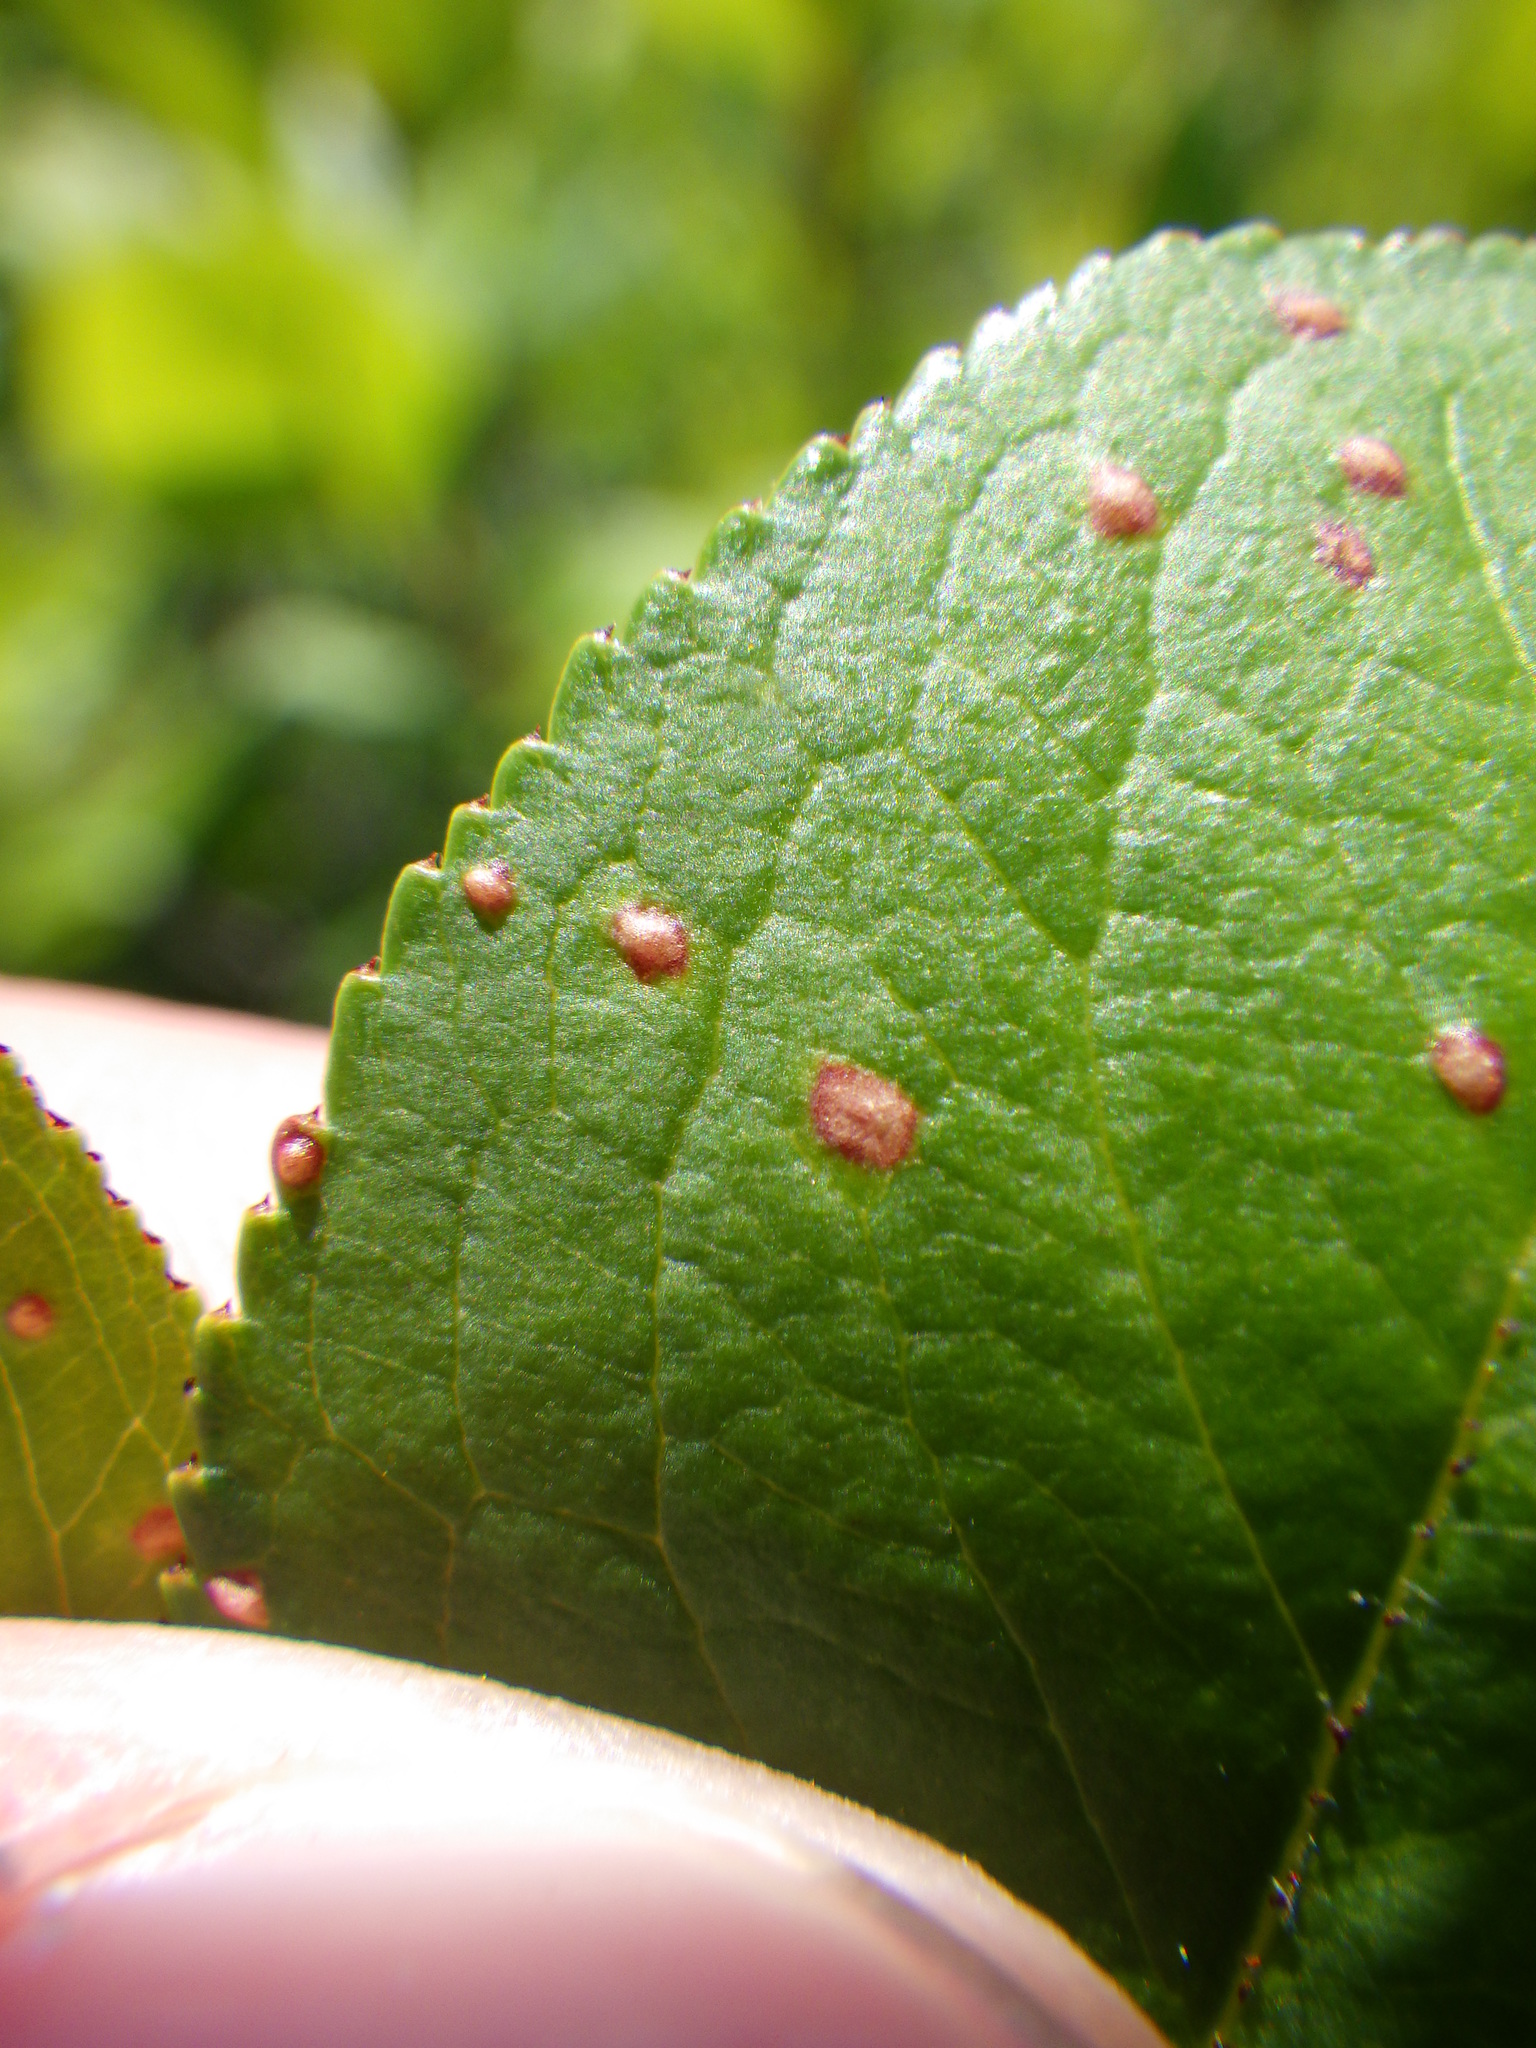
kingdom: Plantae
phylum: Tracheophyta
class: Magnoliopsida
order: Rosales
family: Rosaceae
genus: Aronia
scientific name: Aronia prunifolia
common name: Purple chokeberry
